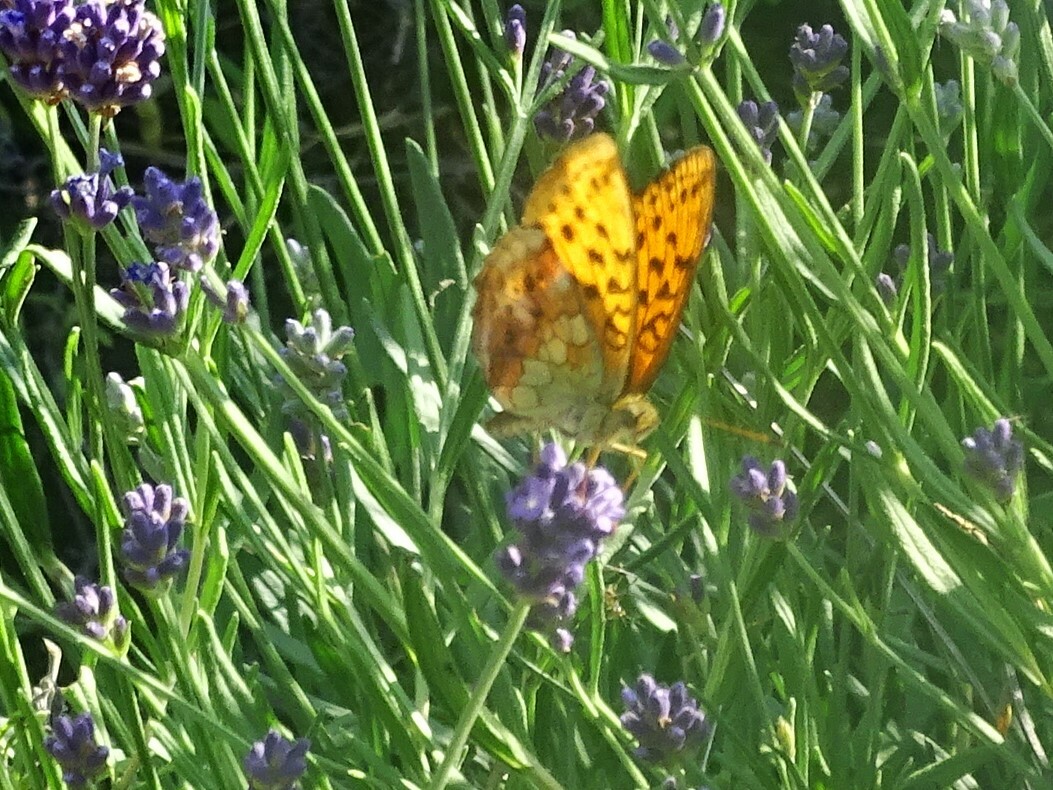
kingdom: Animalia
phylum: Arthropoda
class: Insecta
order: Lepidoptera
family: Nymphalidae
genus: Brenthis
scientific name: Brenthis daphne
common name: Marbled fritillary
